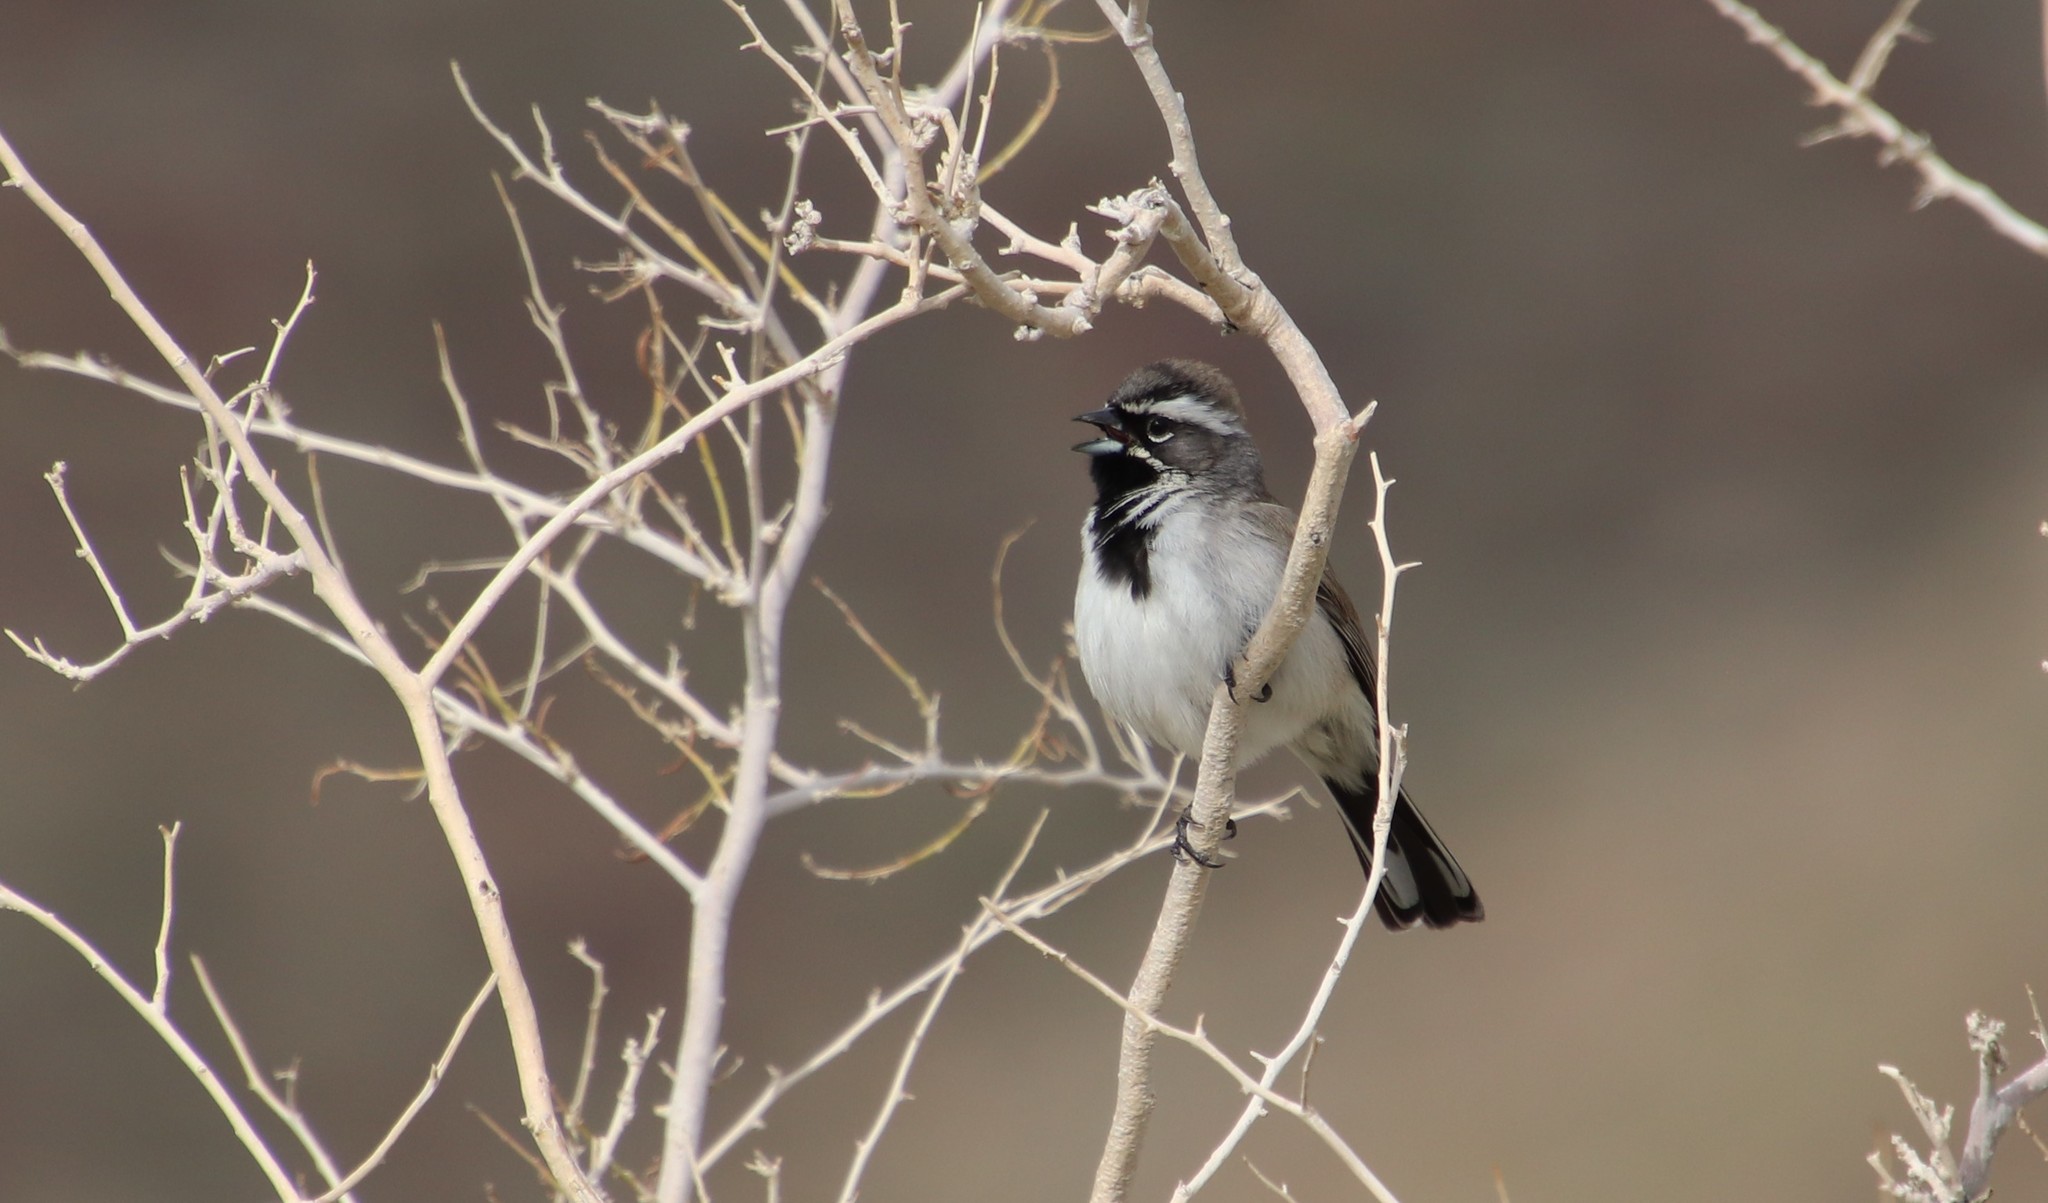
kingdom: Animalia
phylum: Chordata
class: Aves
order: Passeriformes
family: Passerellidae
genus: Amphispiza
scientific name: Amphispiza bilineata
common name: Black-throated sparrow
